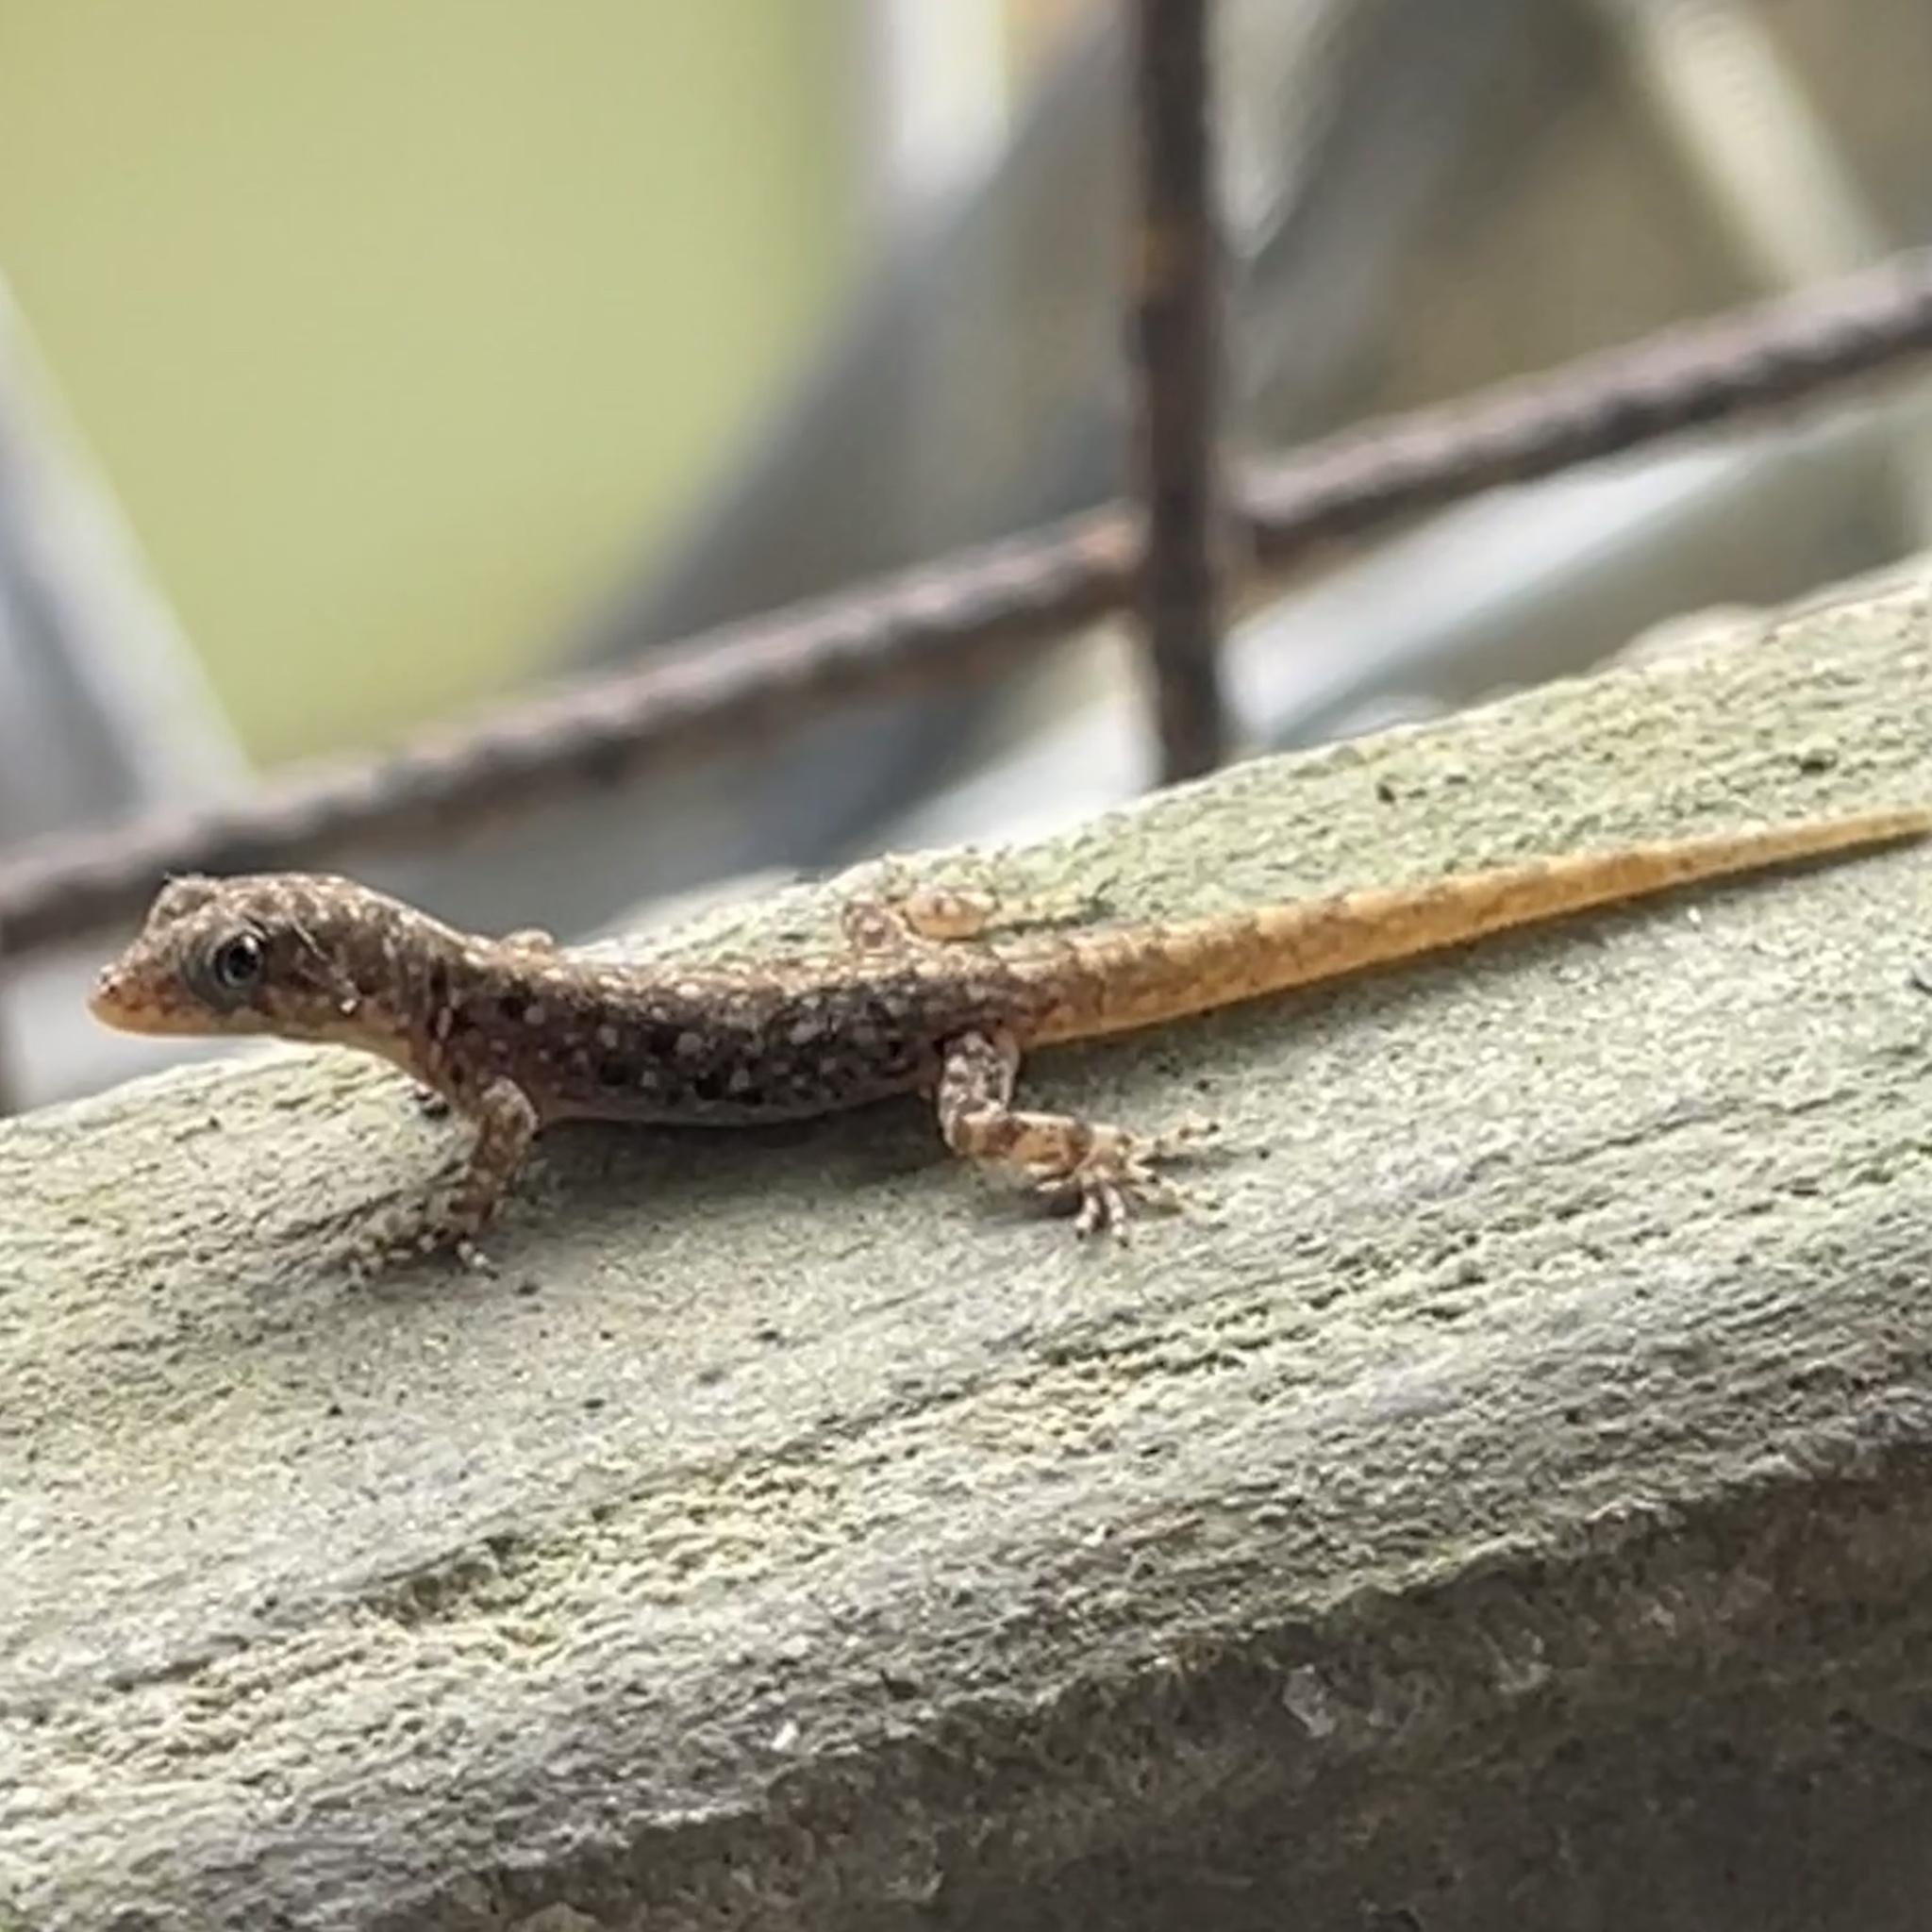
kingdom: Animalia
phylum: Chordata
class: Squamata
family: Sphaerodactylidae
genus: Gonatodes
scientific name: Gonatodes vittatus
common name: Wiegmann's striped gecko
